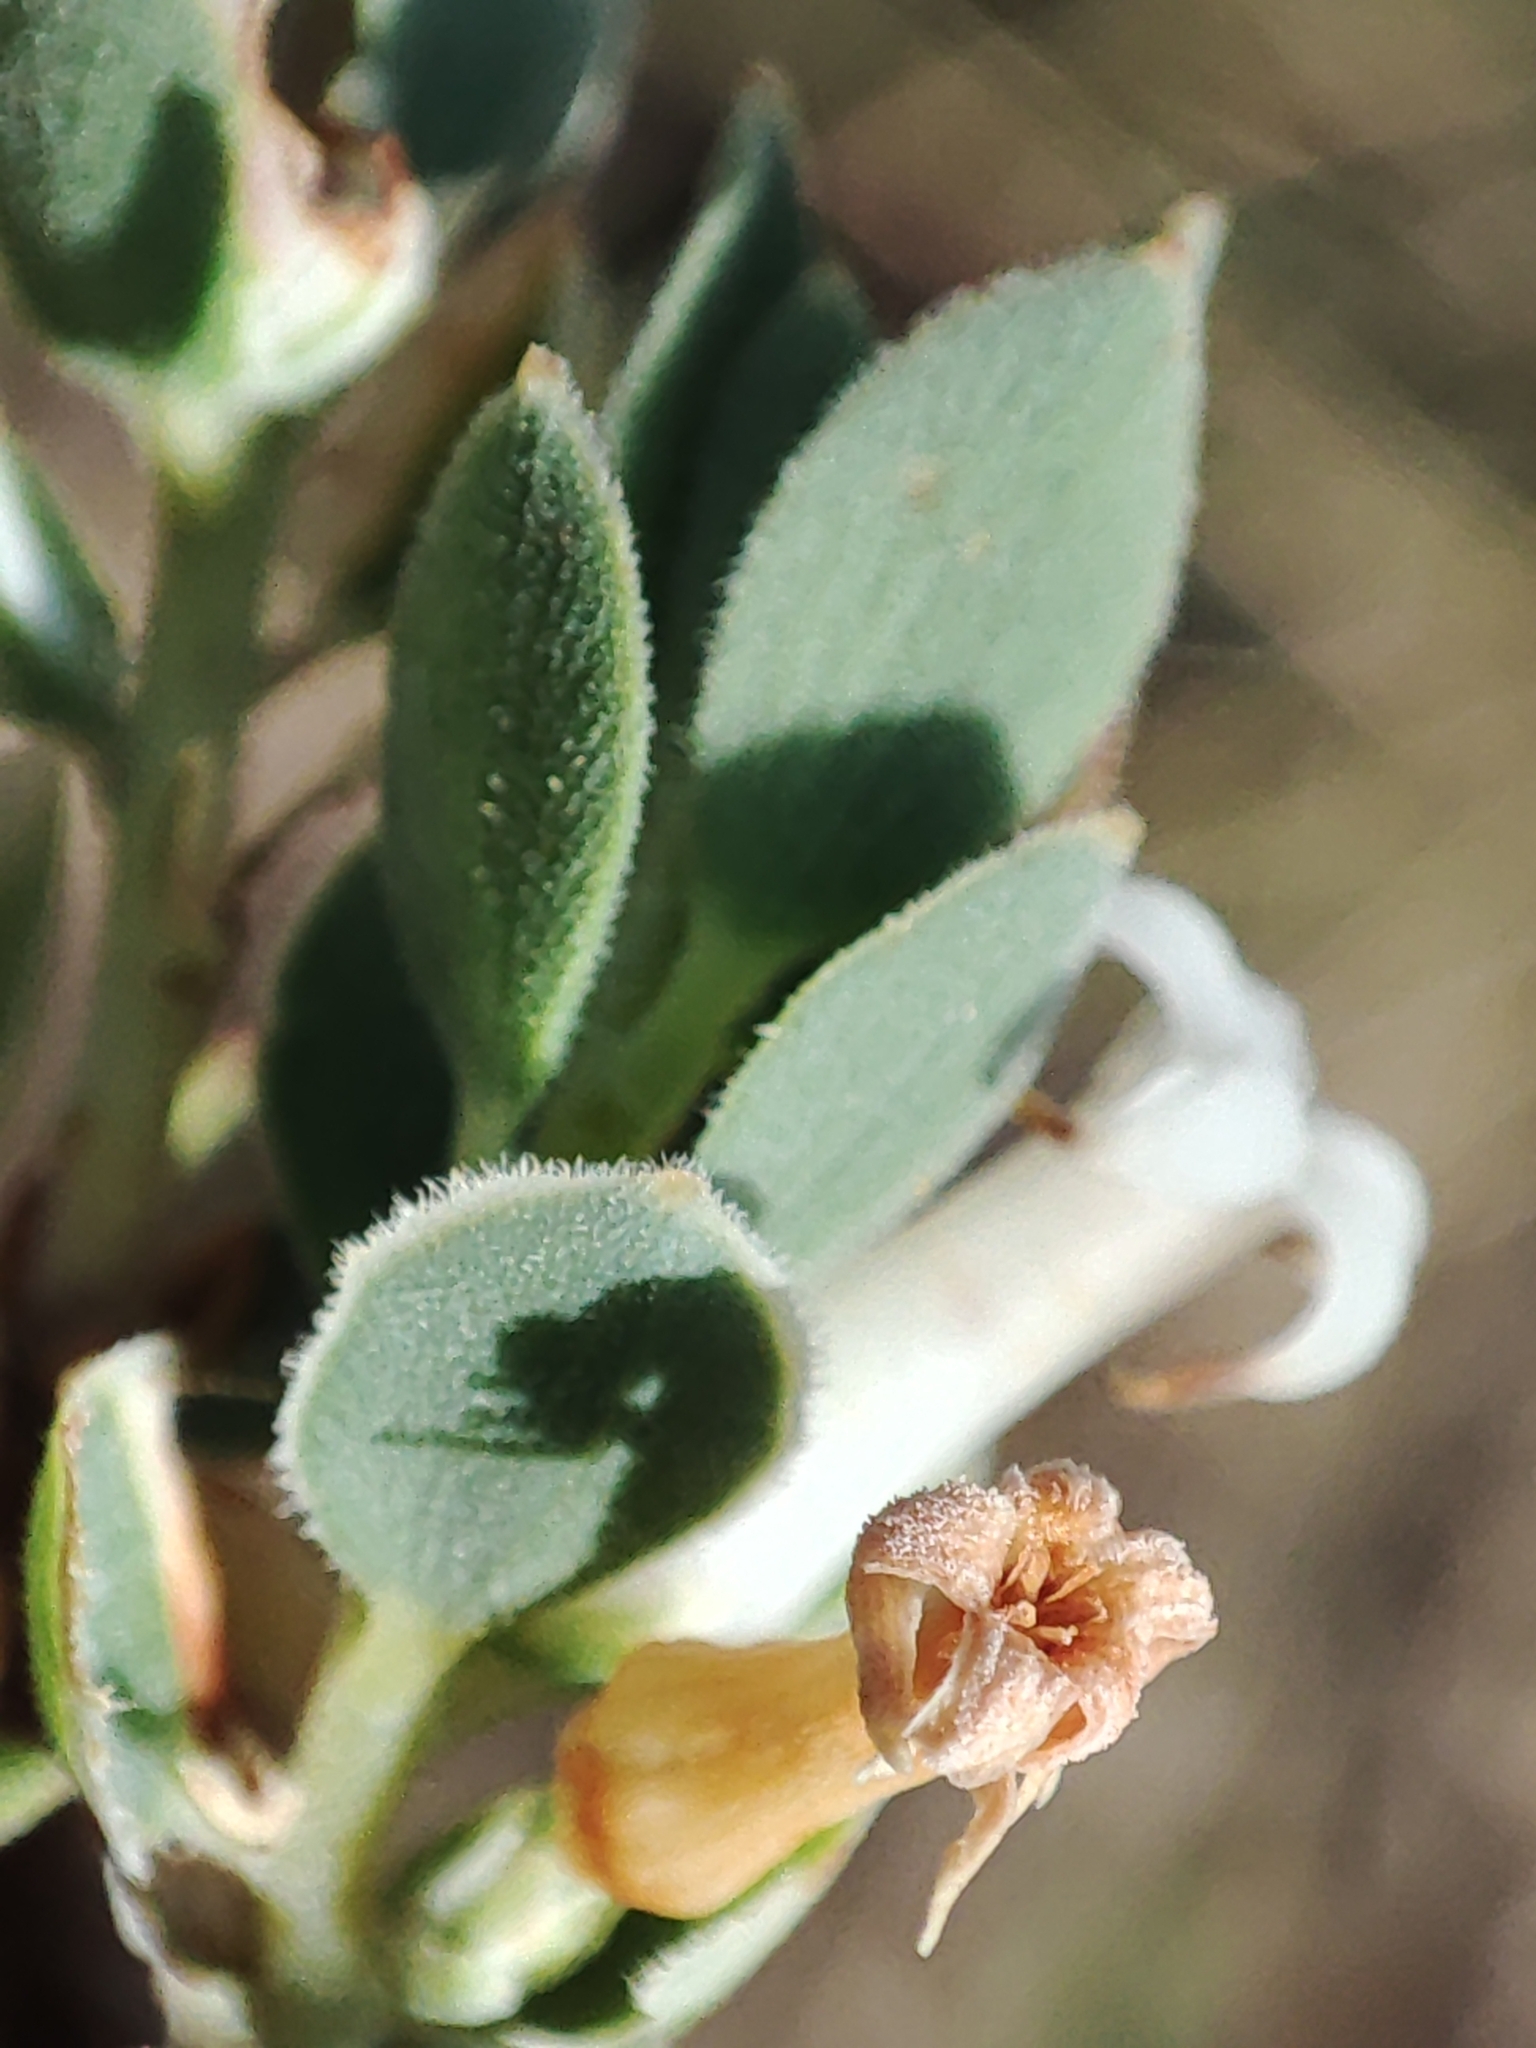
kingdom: Plantae
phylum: Tracheophyta
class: Magnoliopsida
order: Ericales
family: Ericaceae
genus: Brachyloma
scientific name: Brachyloma daphnoides
